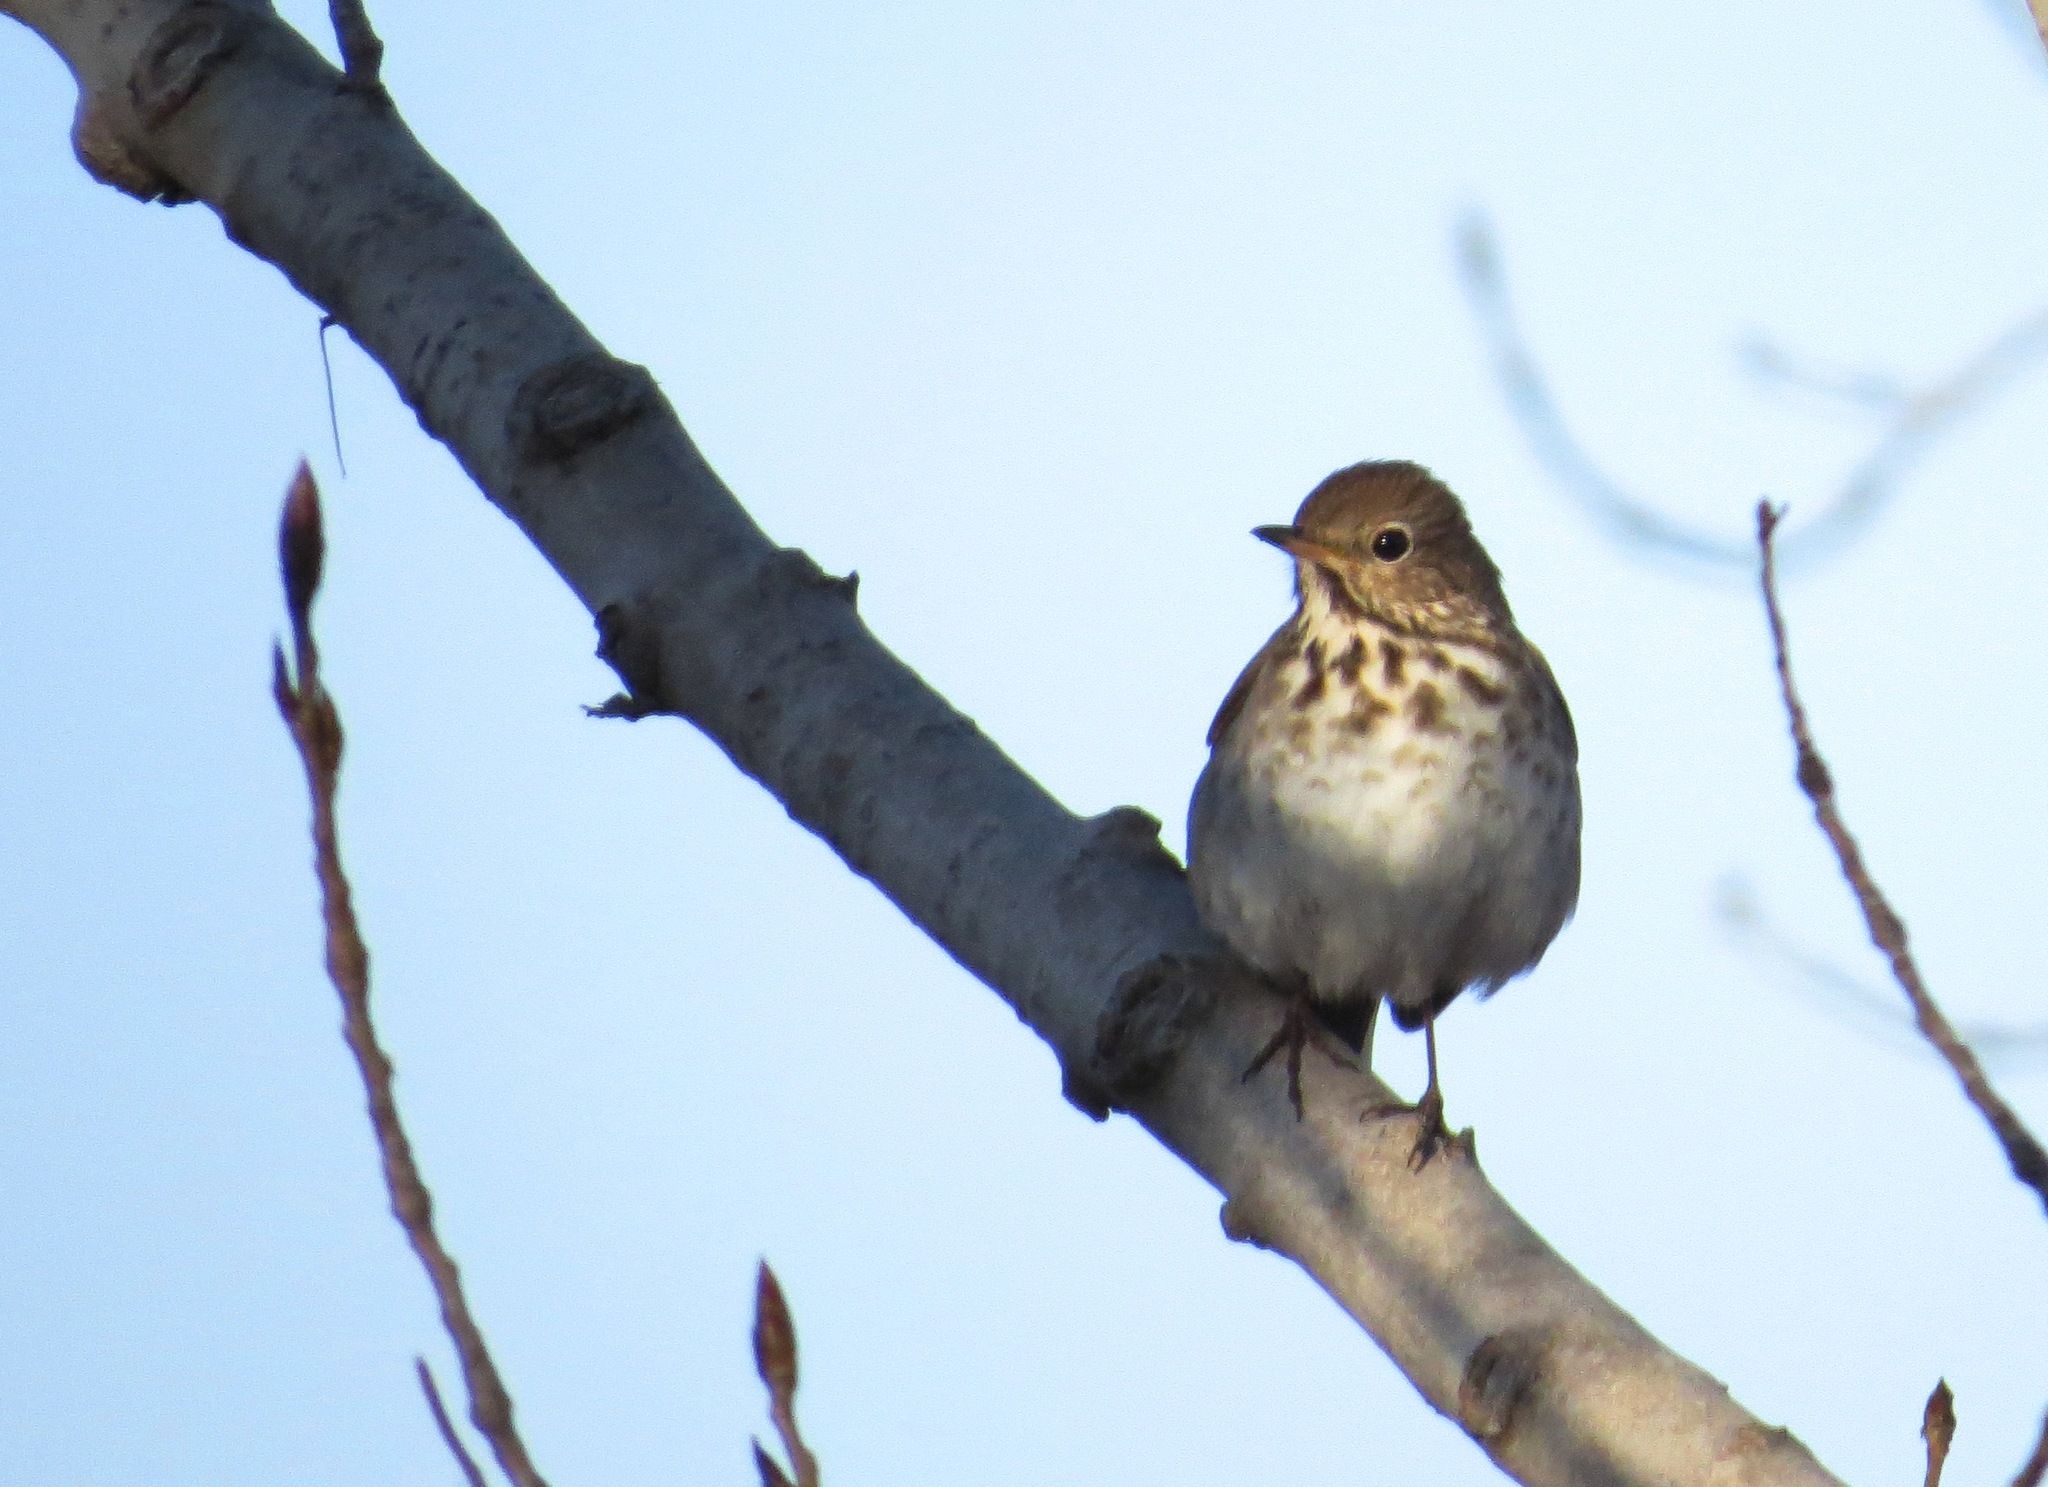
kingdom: Animalia
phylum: Chordata
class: Aves
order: Passeriformes
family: Turdidae
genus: Catharus
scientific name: Catharus guttatus
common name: Hermit thrush
